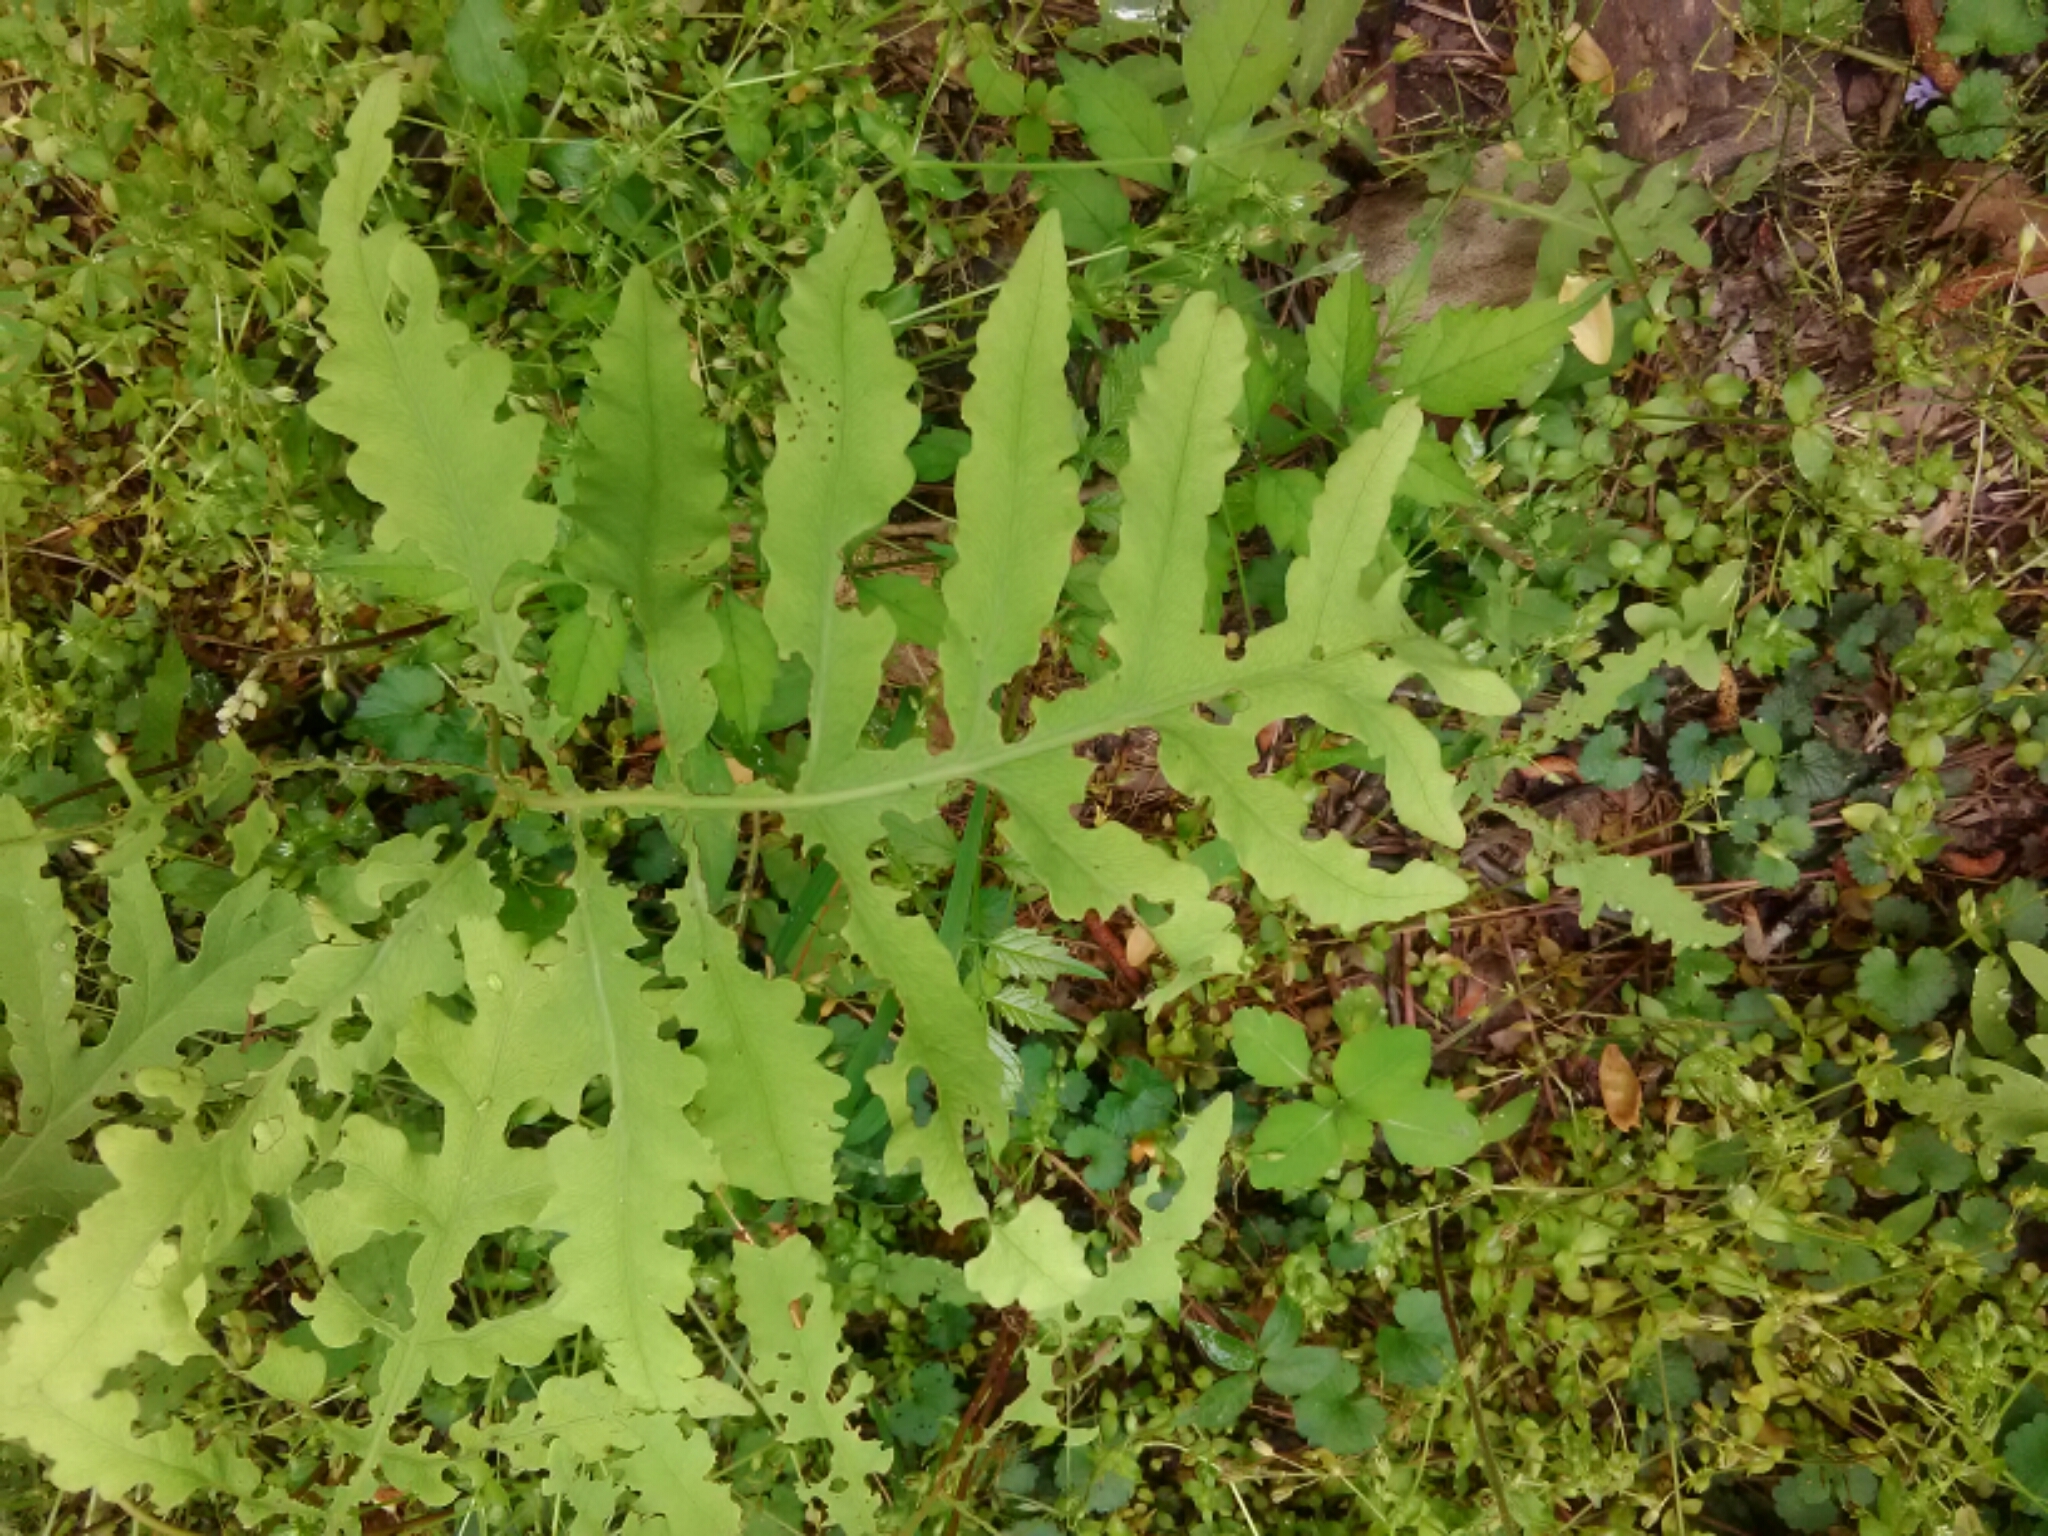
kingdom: Plantae
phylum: Tracheophyta
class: Polypodiopsida
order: Polypodiales
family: Onocleaceae
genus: Onoclea
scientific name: Onoclea sensibilis
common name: Sensitive fern
